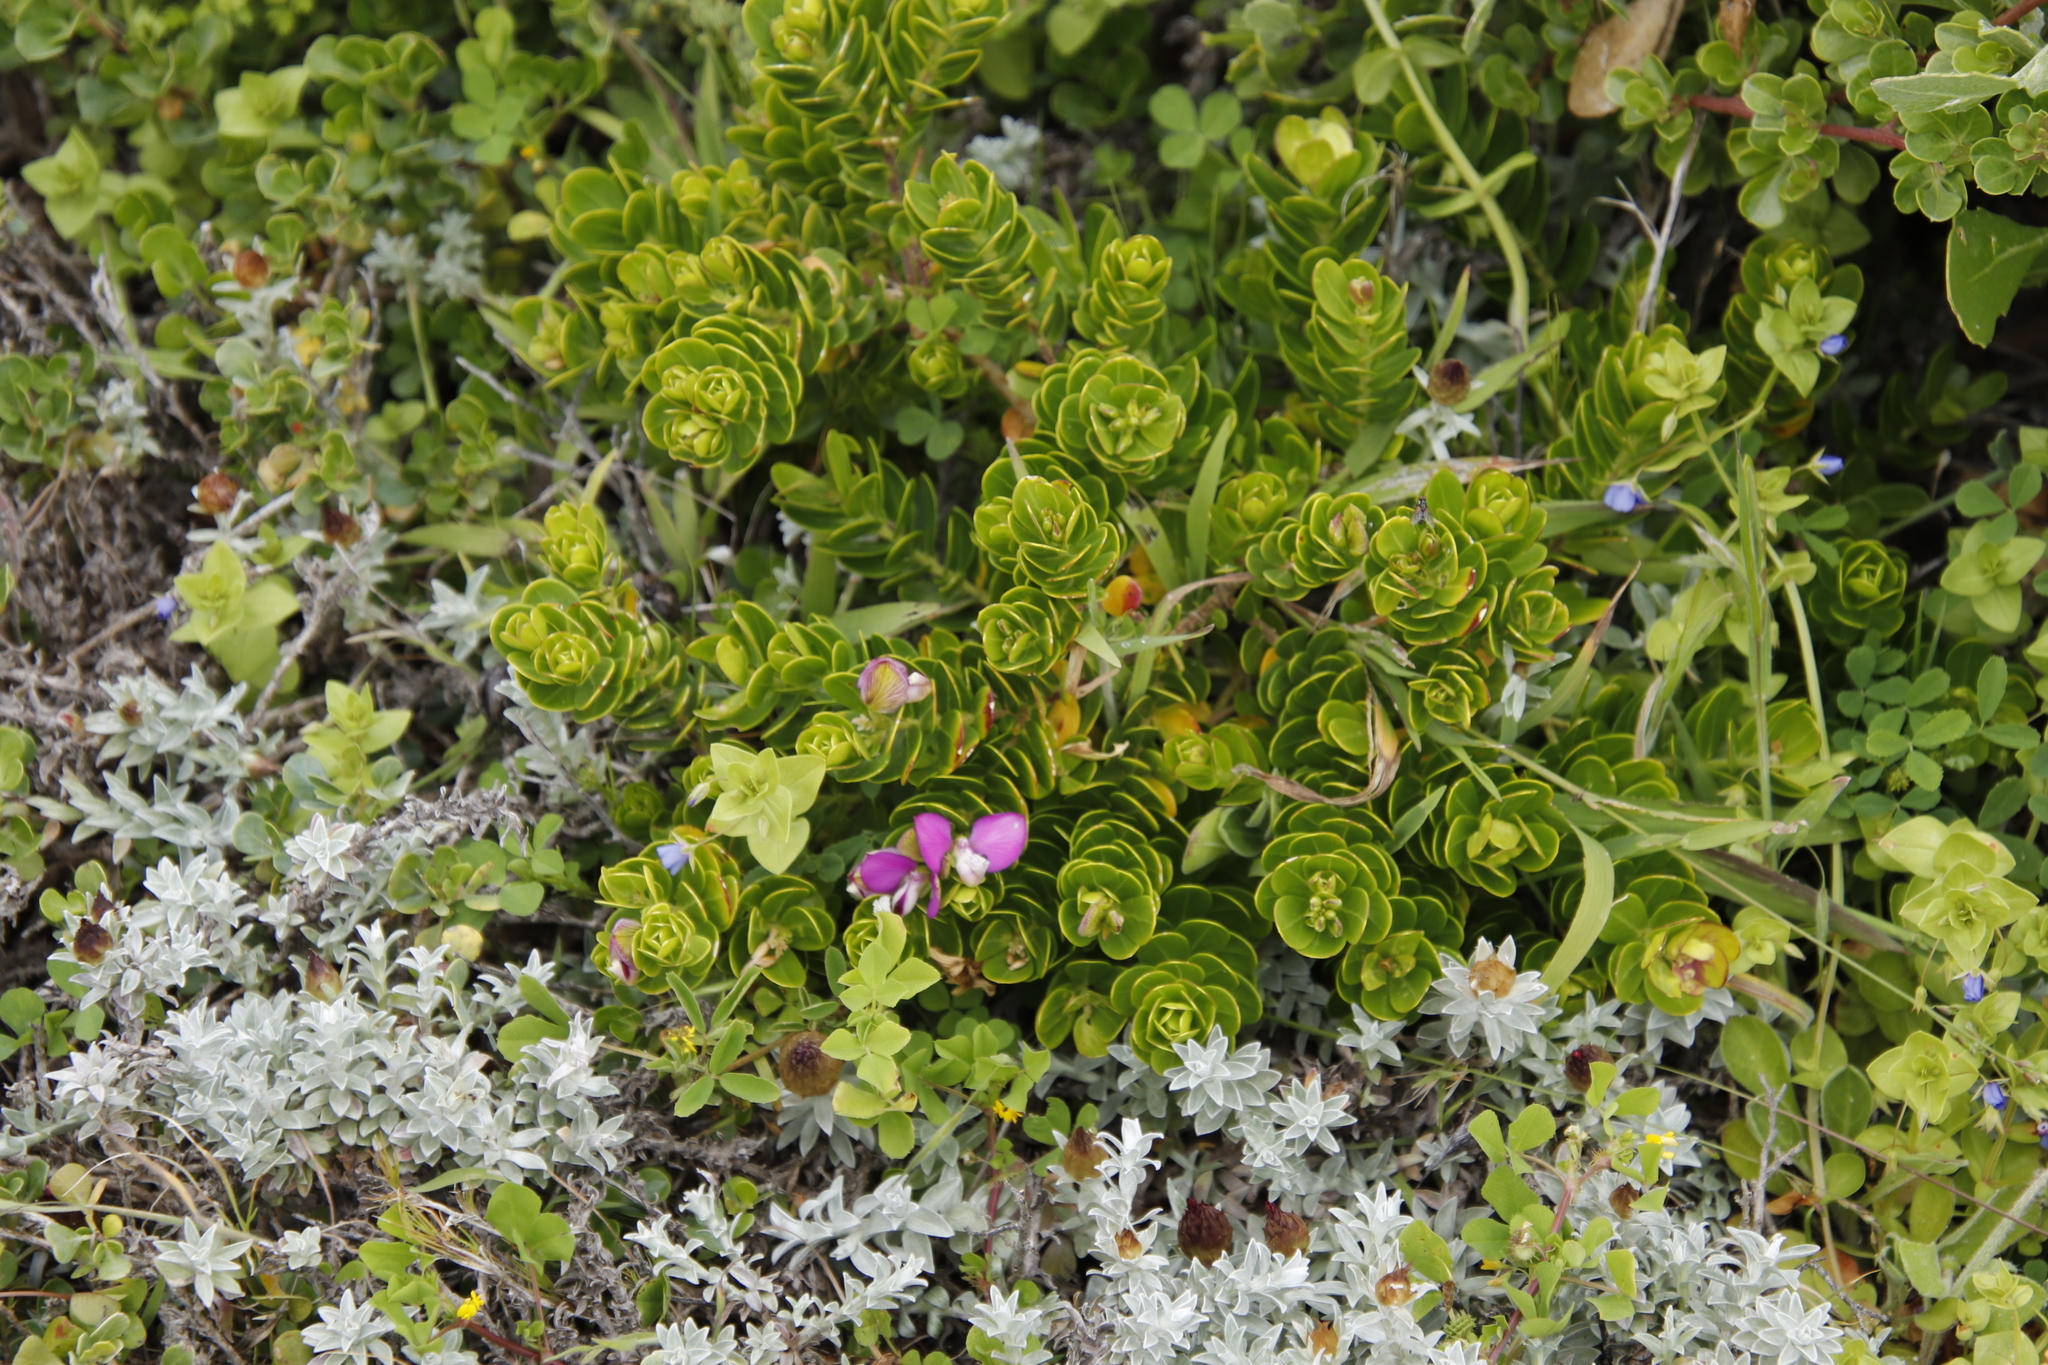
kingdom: Plantae
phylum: Tracheophyta
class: Magnoliopsida
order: Fabales
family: Polygalaceae
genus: Polygala
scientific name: Polygala myrtifolia
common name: Myrtle-leaf milkwort
